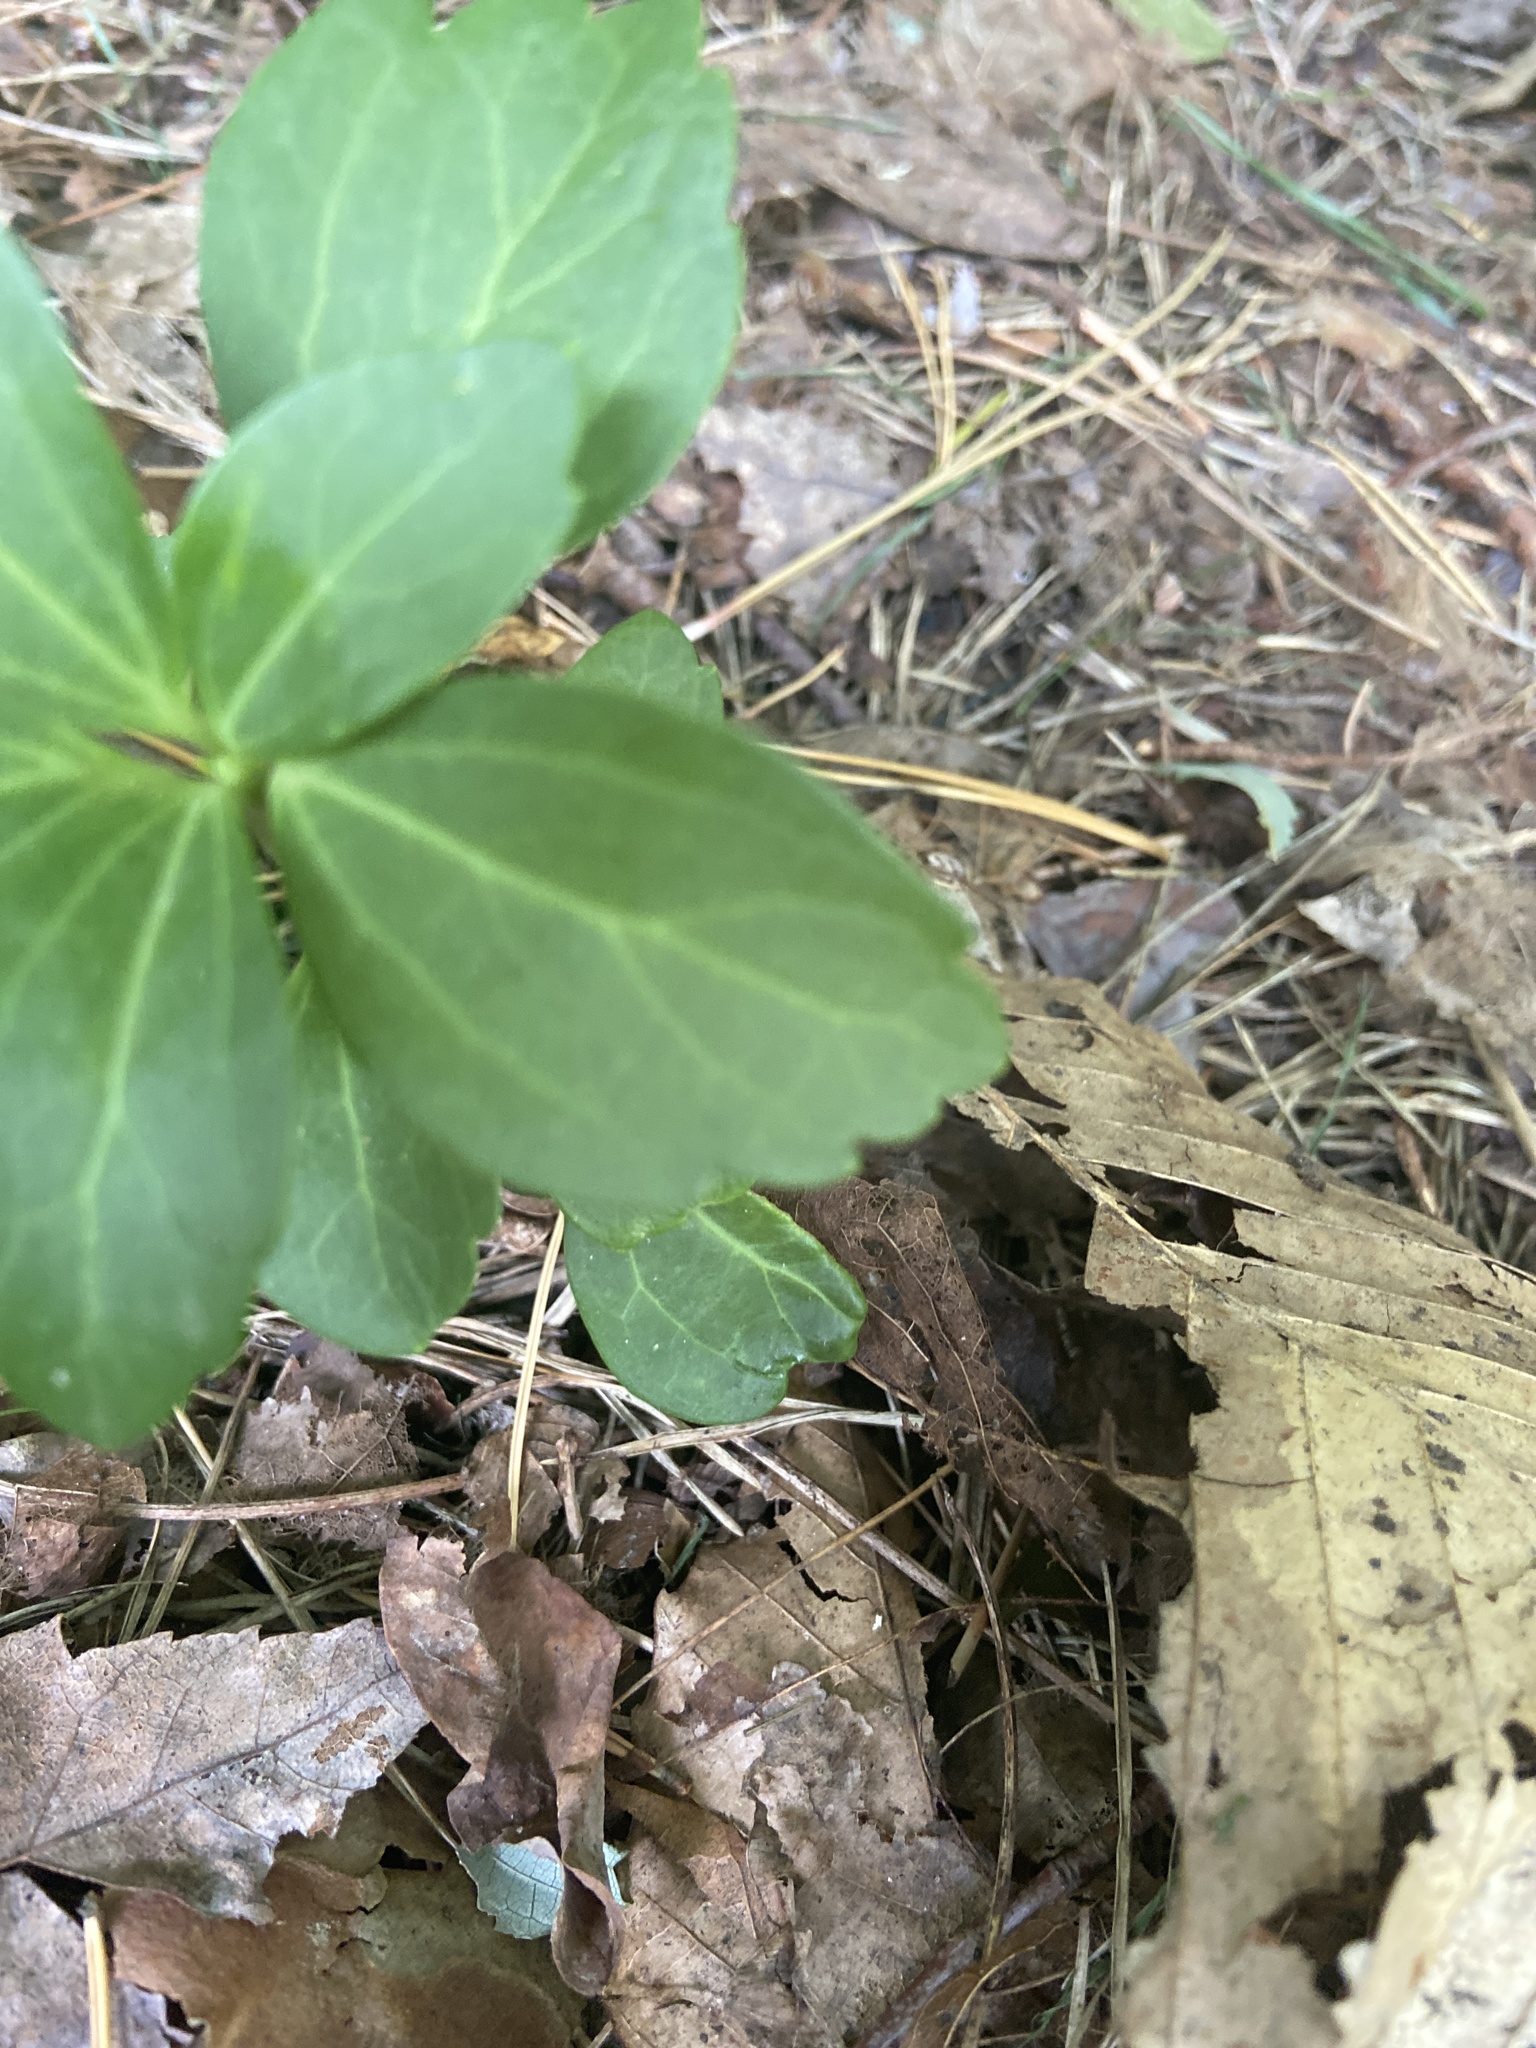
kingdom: Plantae
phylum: Tracheophyta
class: Magnoliopsida
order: Buxales
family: Buxaceae
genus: Pachysandra
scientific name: Pachysandra terminalis
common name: Japanese pachysandra
